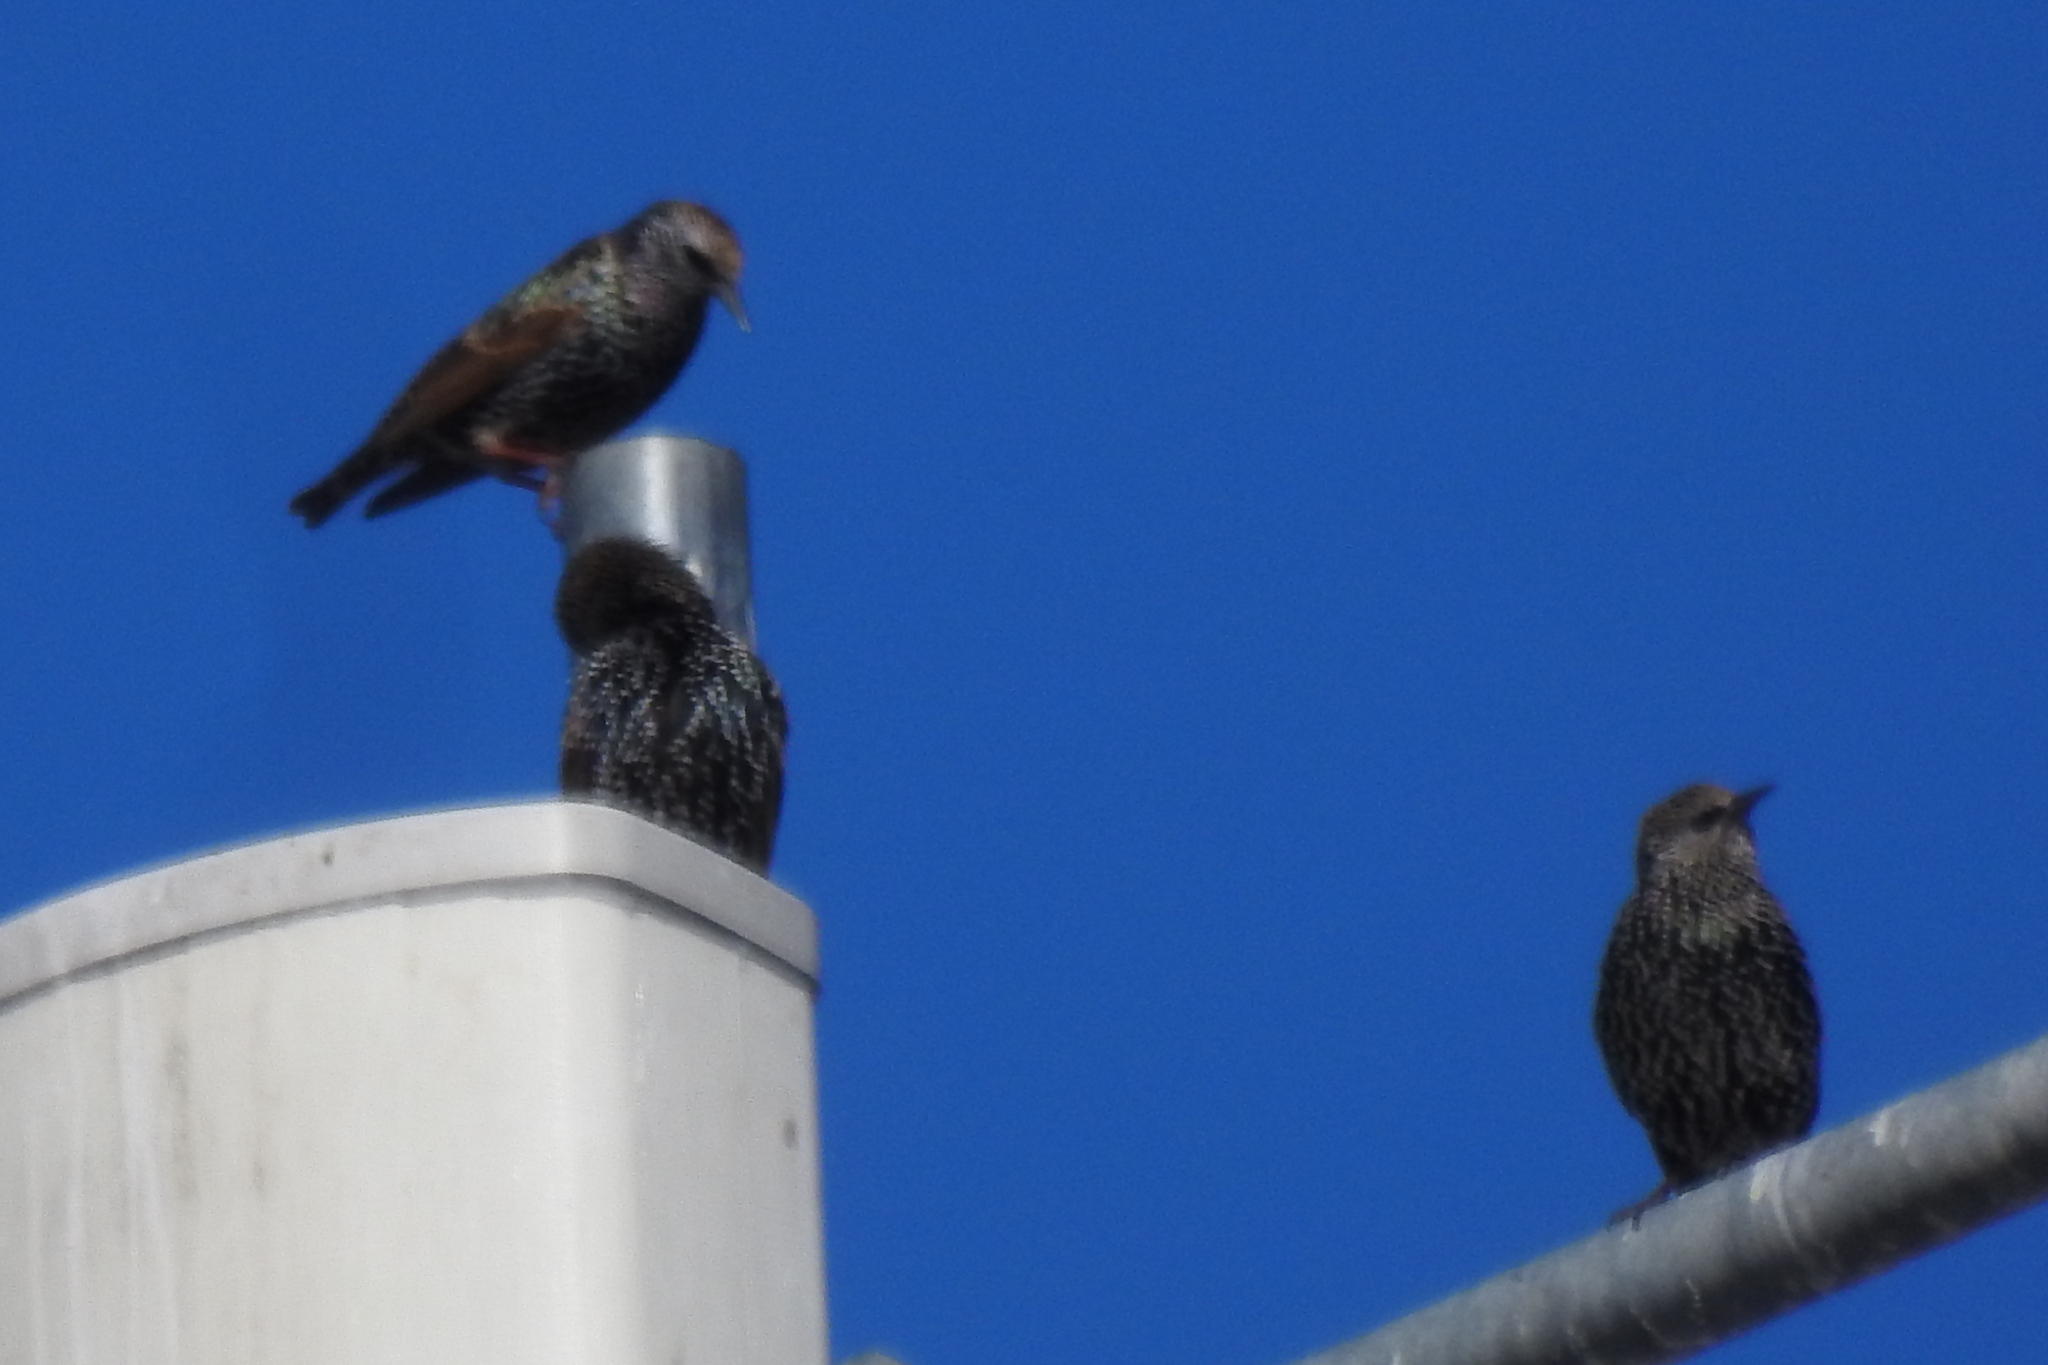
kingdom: Animalia
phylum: Chordata
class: Aves
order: Passeriformes
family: Sturnidae
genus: Sturnus
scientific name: Sturnus vulgaris
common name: Common starling
